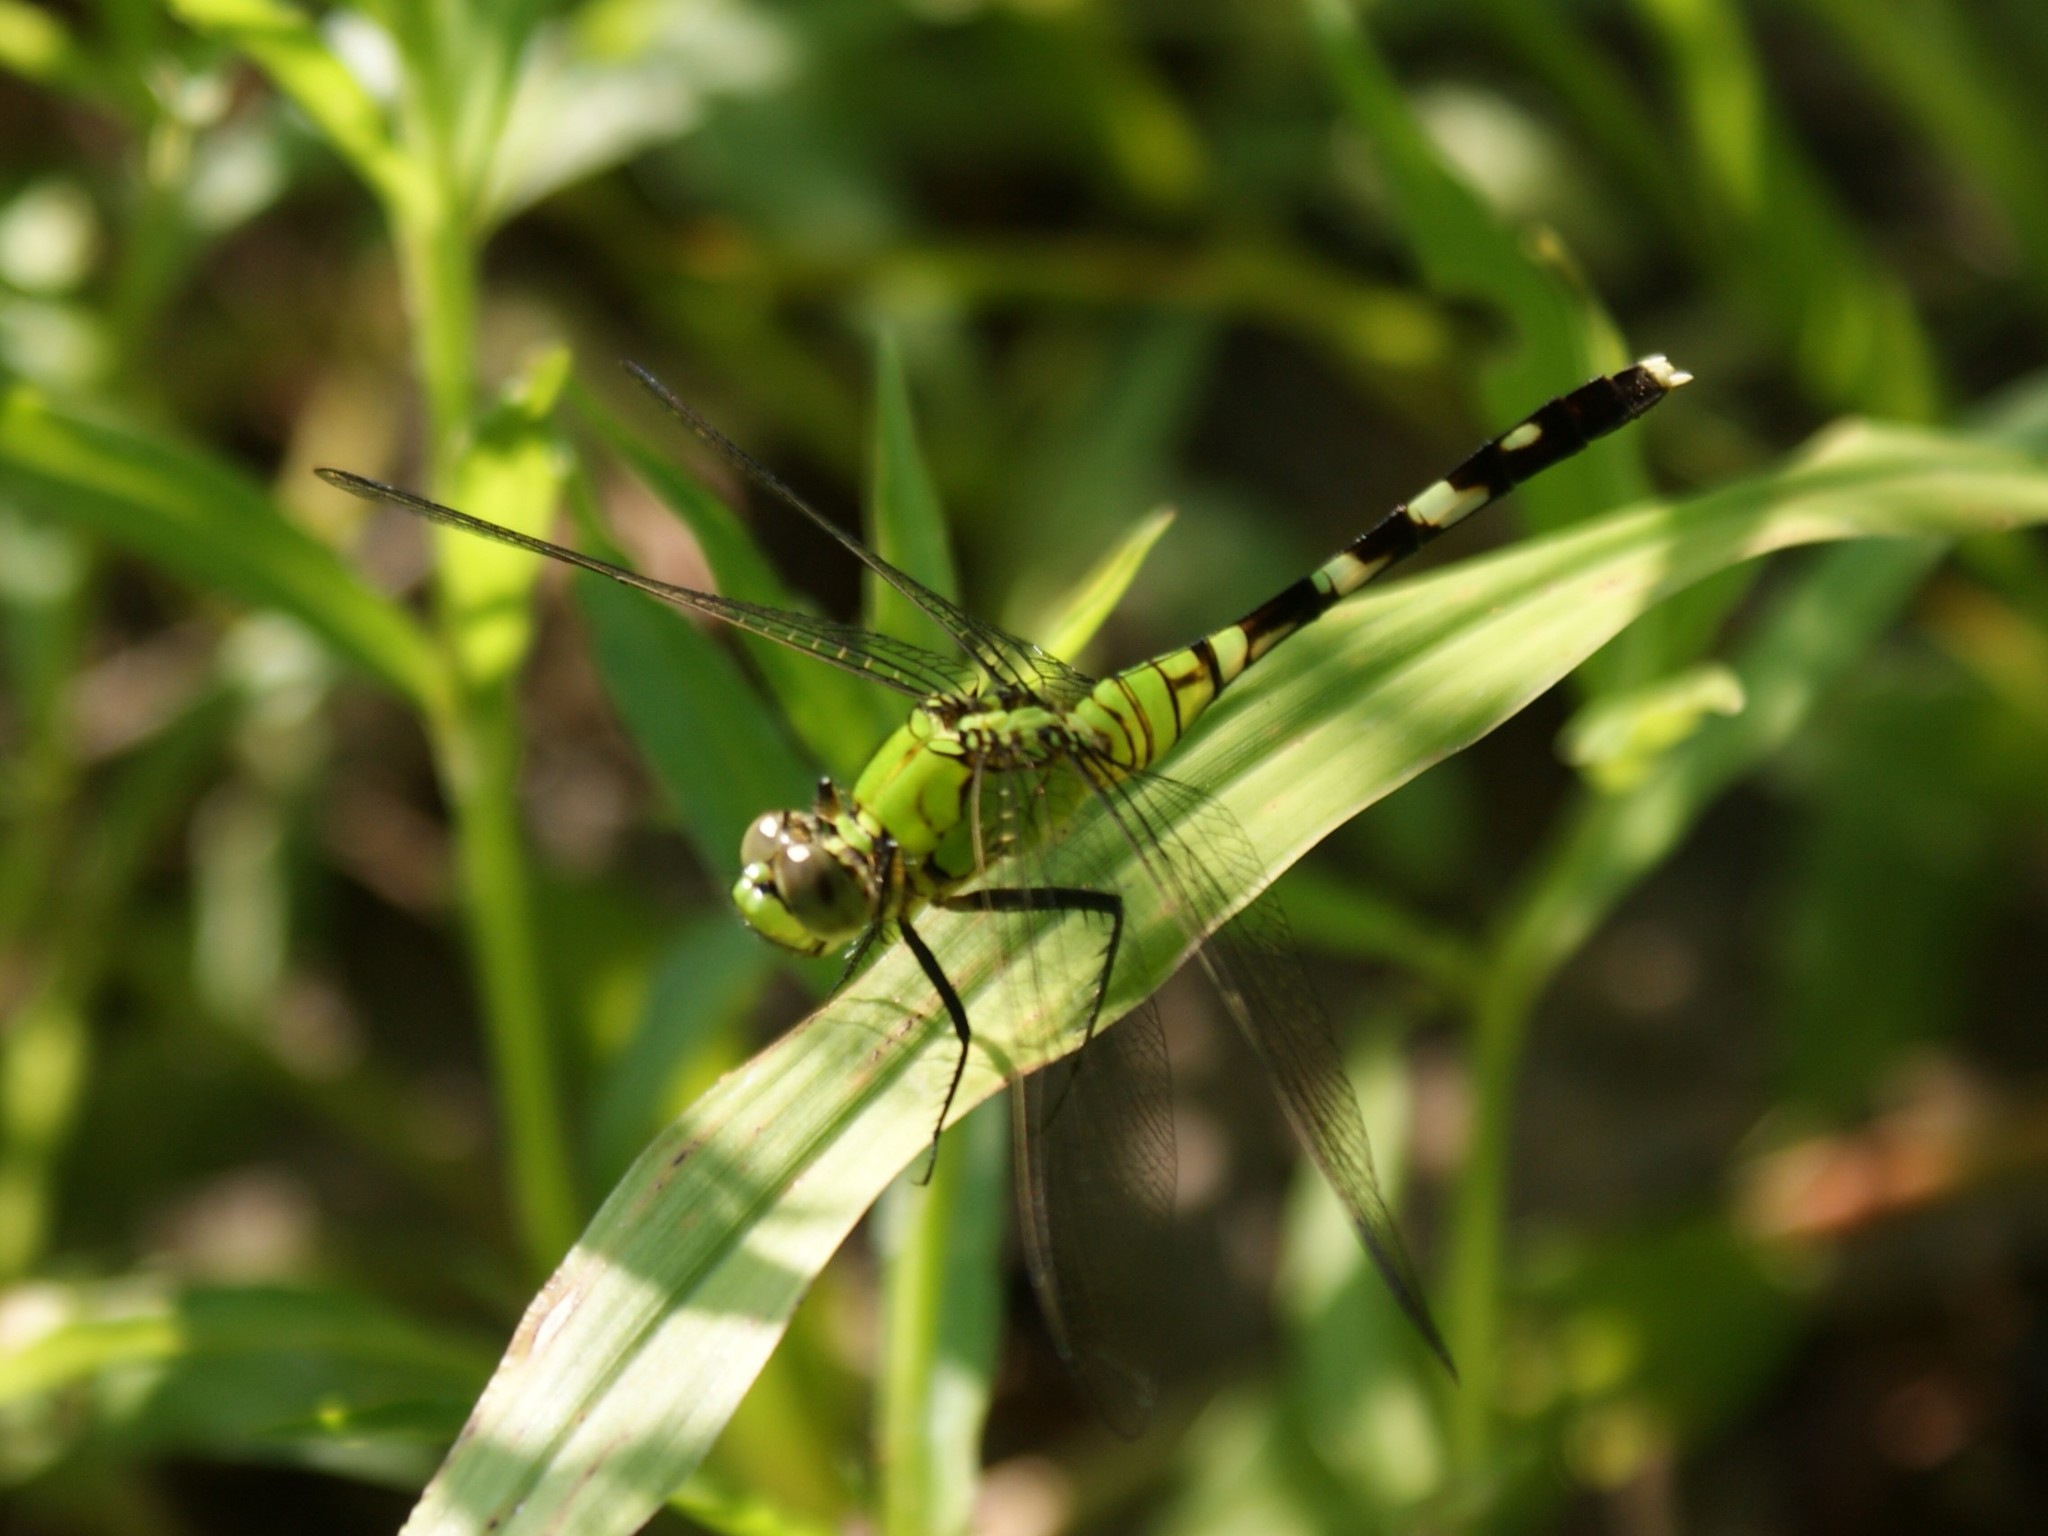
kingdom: Animalia
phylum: Arthropoda
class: Insecta
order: Odonata
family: Libellulidae
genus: Erythemis
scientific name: Erythemis simplicicollis
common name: Eastern pondhawk
